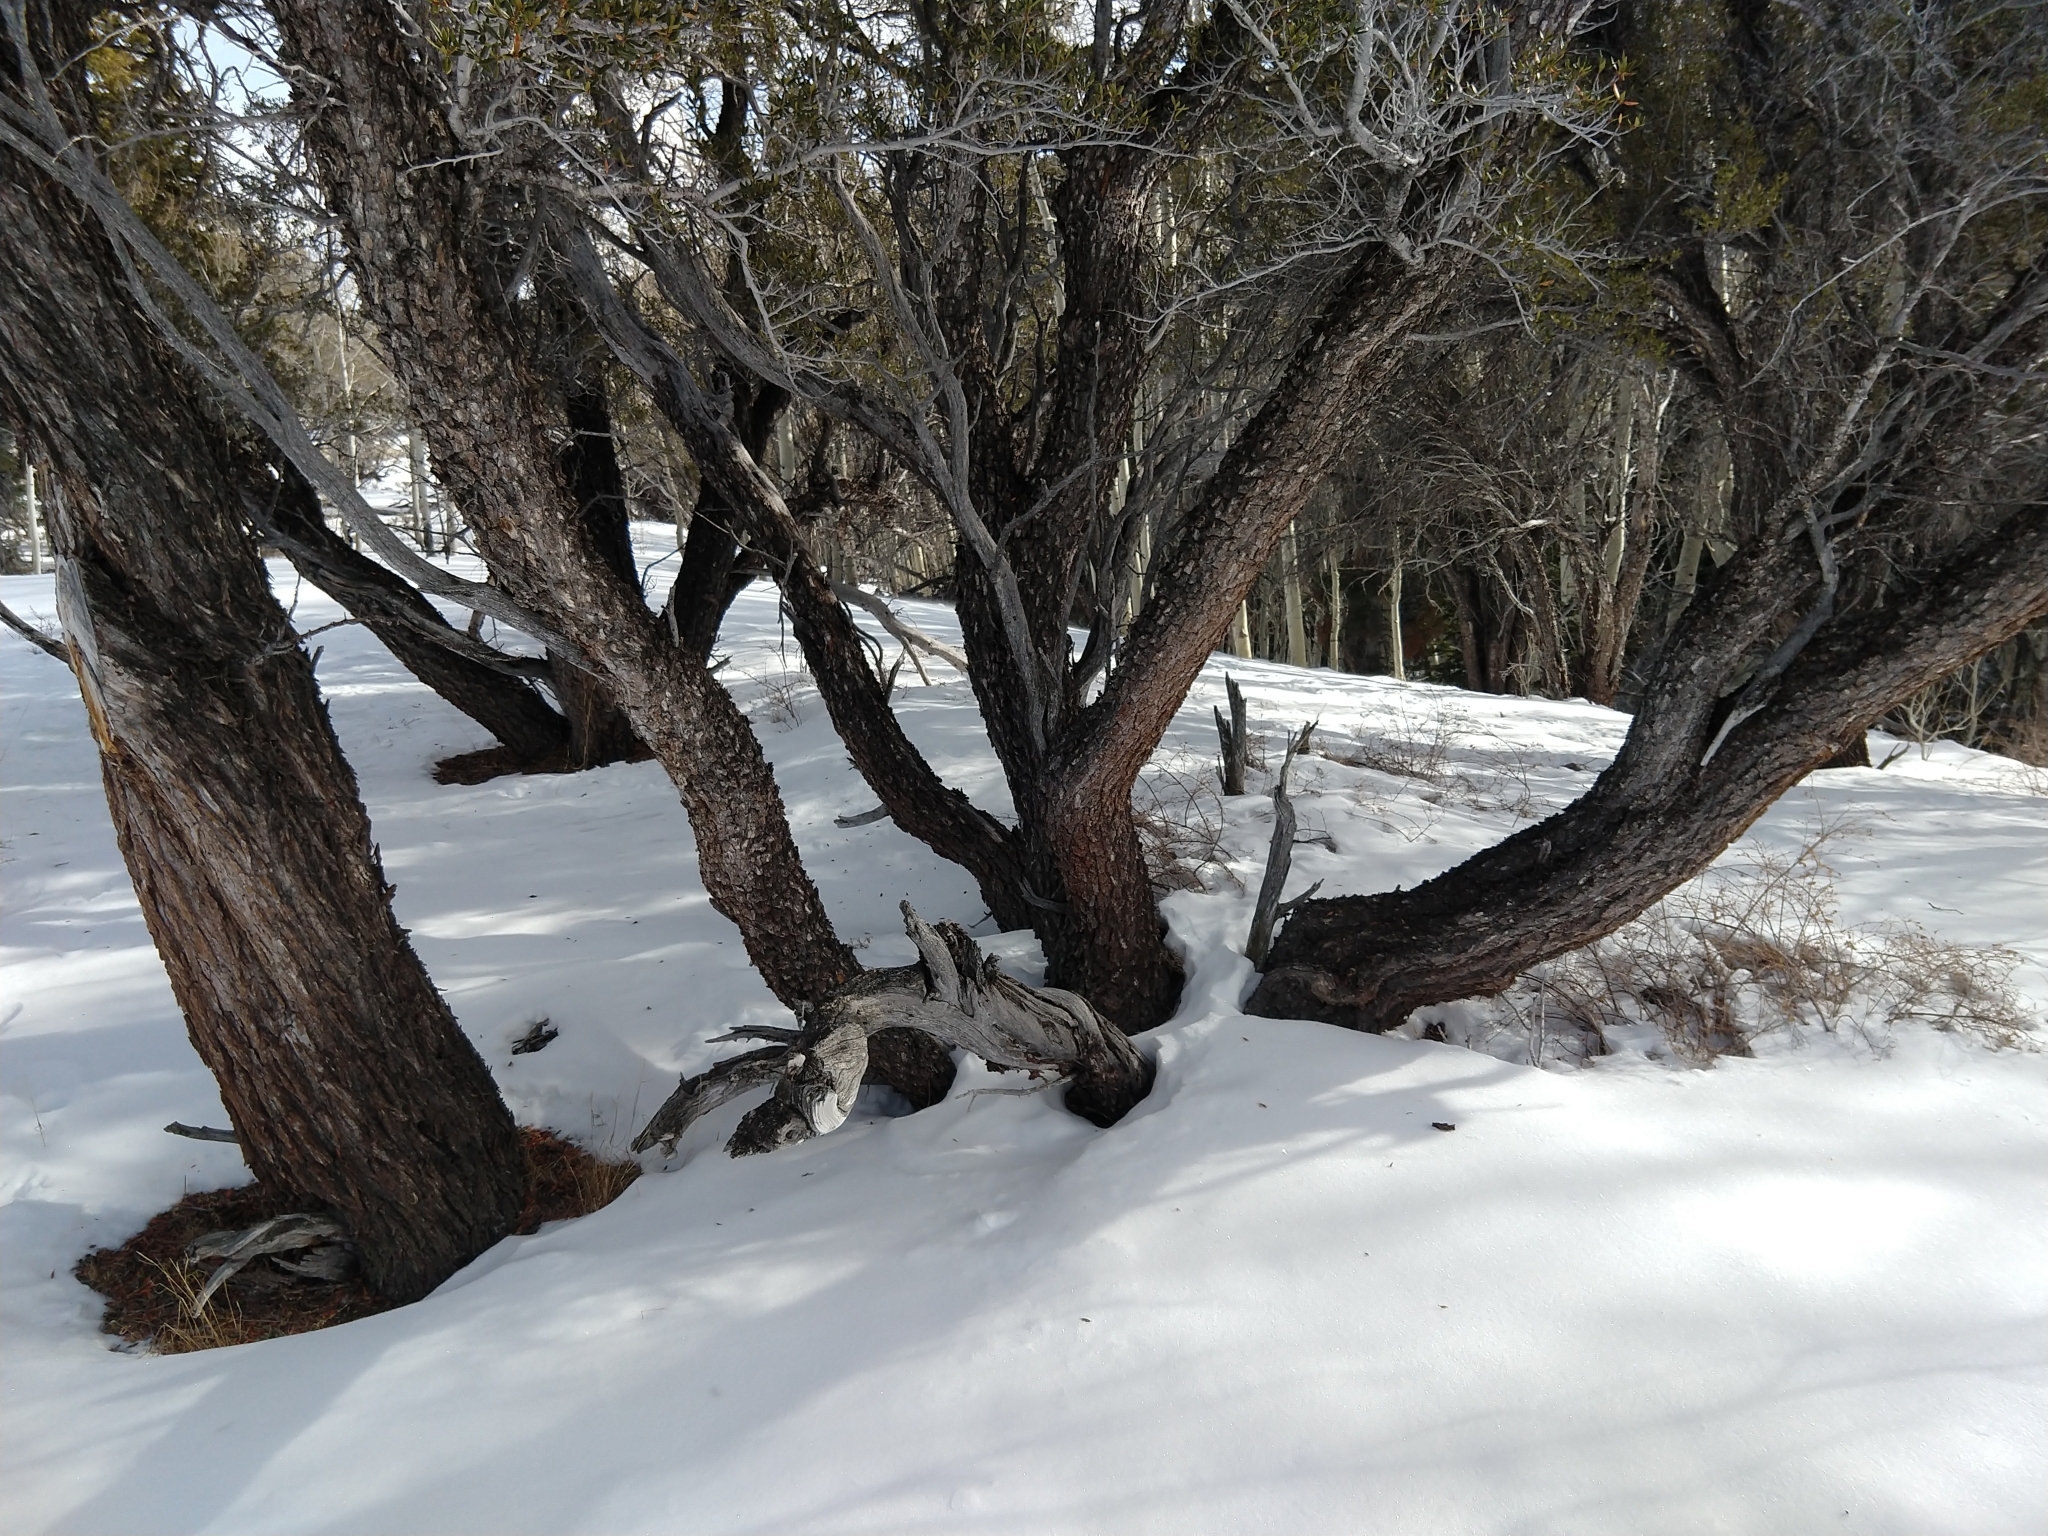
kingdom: Plantae
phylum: Tracheophyta
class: Magnoliopsida
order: Rosales
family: Rosaceae
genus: Cercocarpus
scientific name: Cercocarpus ledifolius
